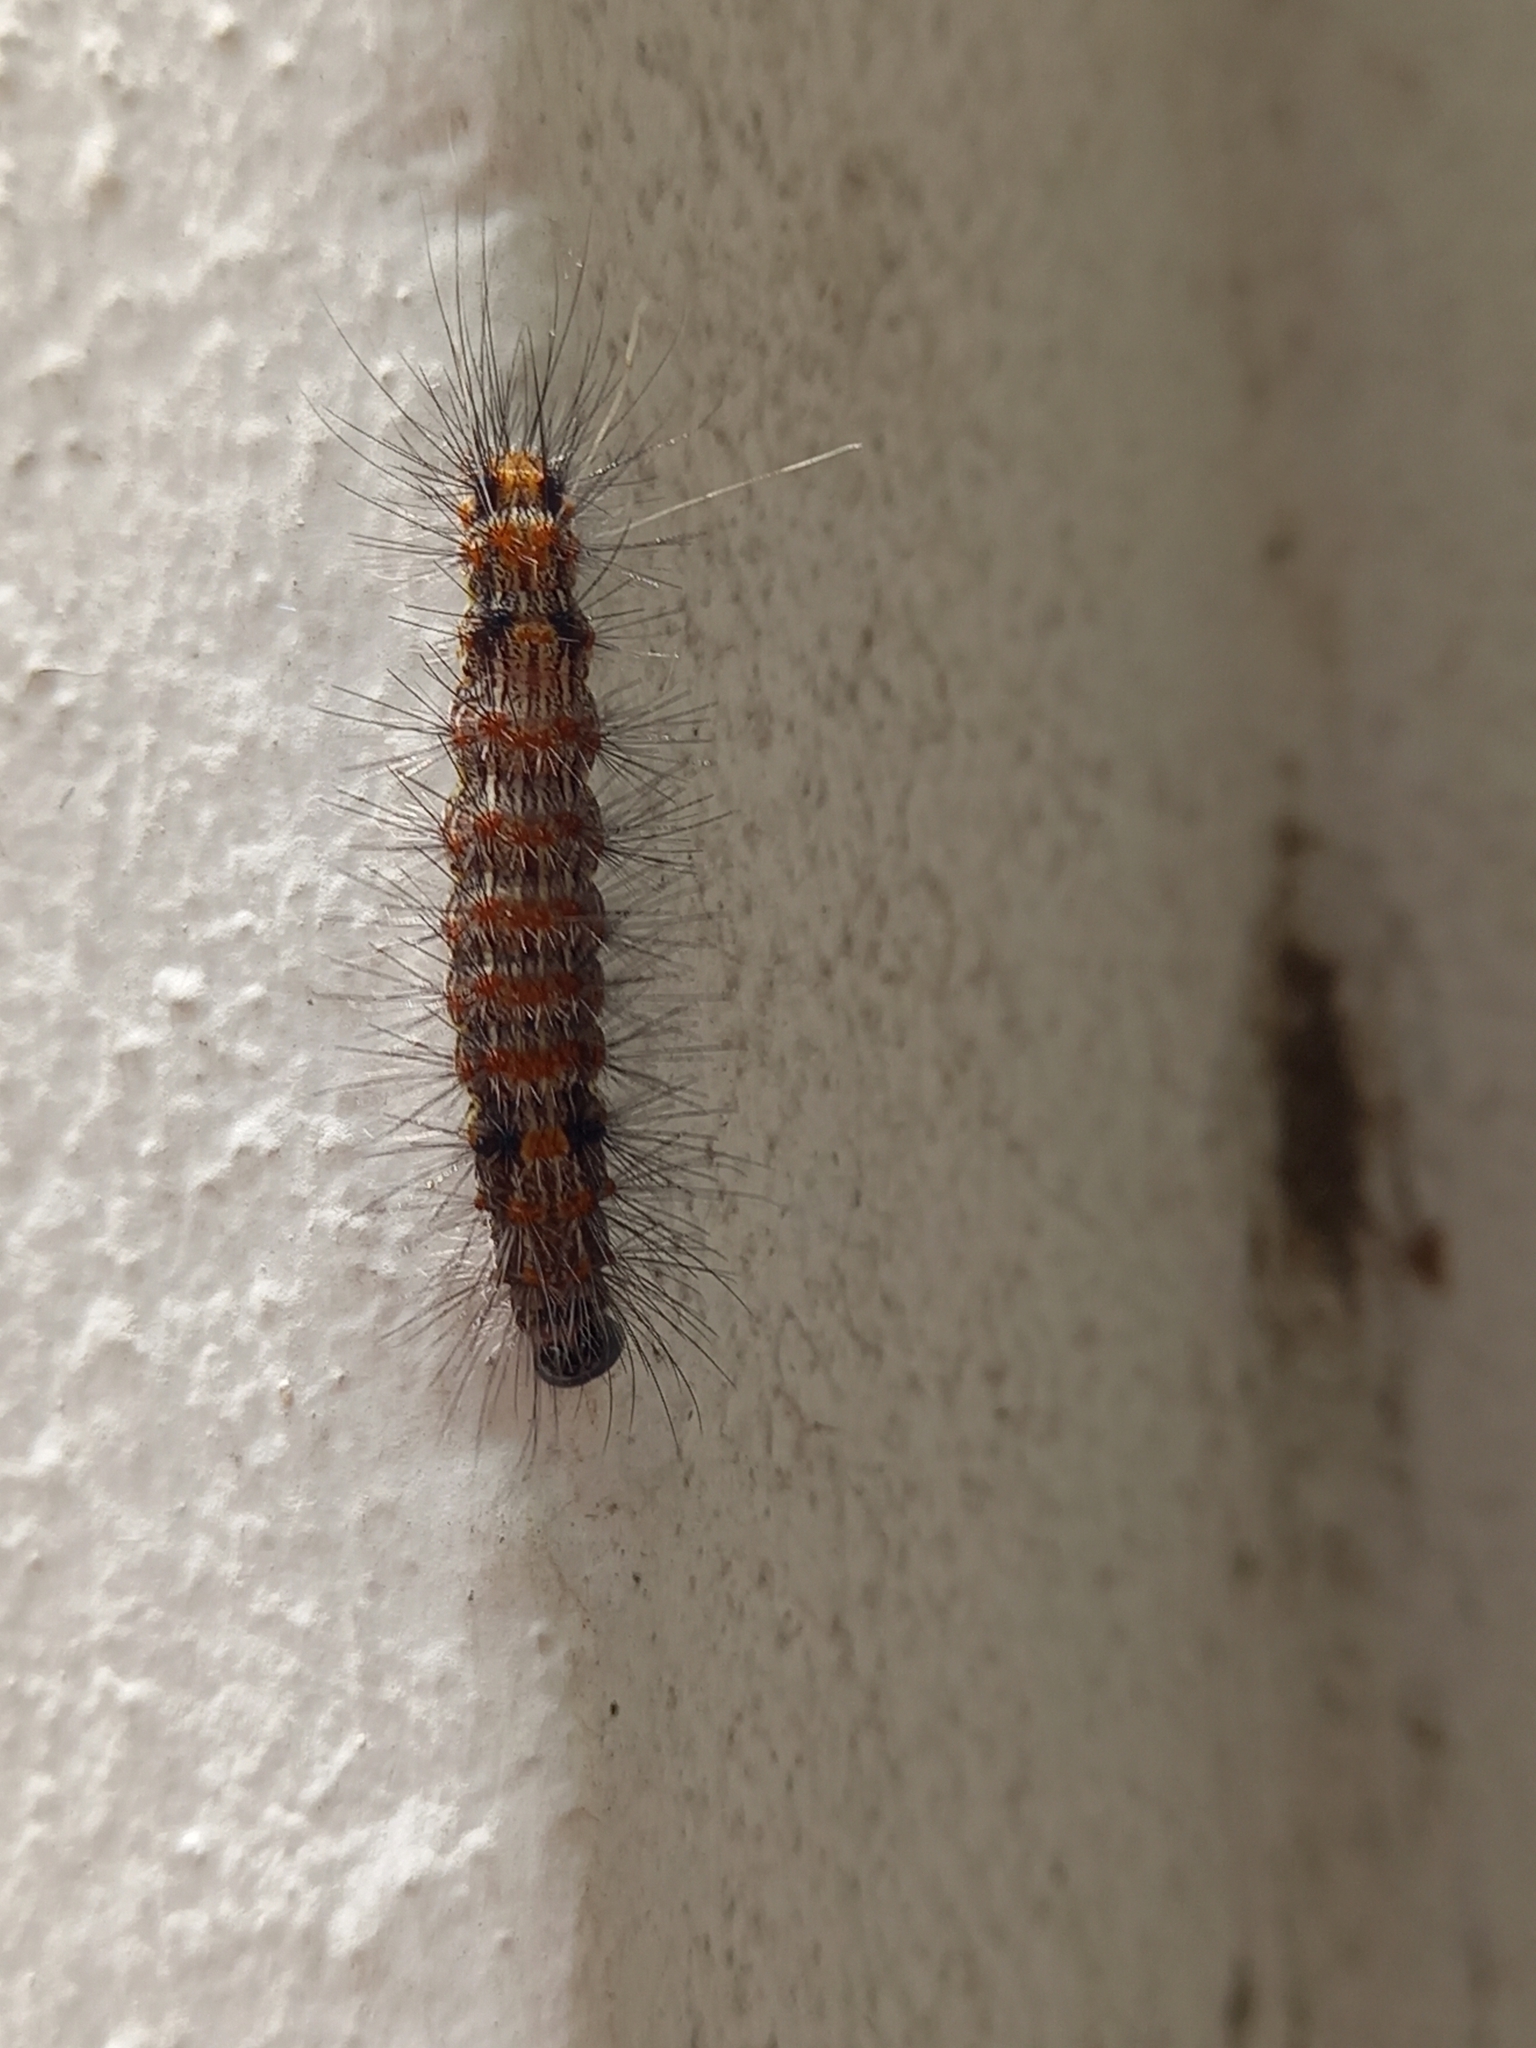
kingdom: Animalia
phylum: Arthropoda
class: Insecta
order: Lepidoptera
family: Erebidae
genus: Dysschema
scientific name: Dysschema sacrifica
